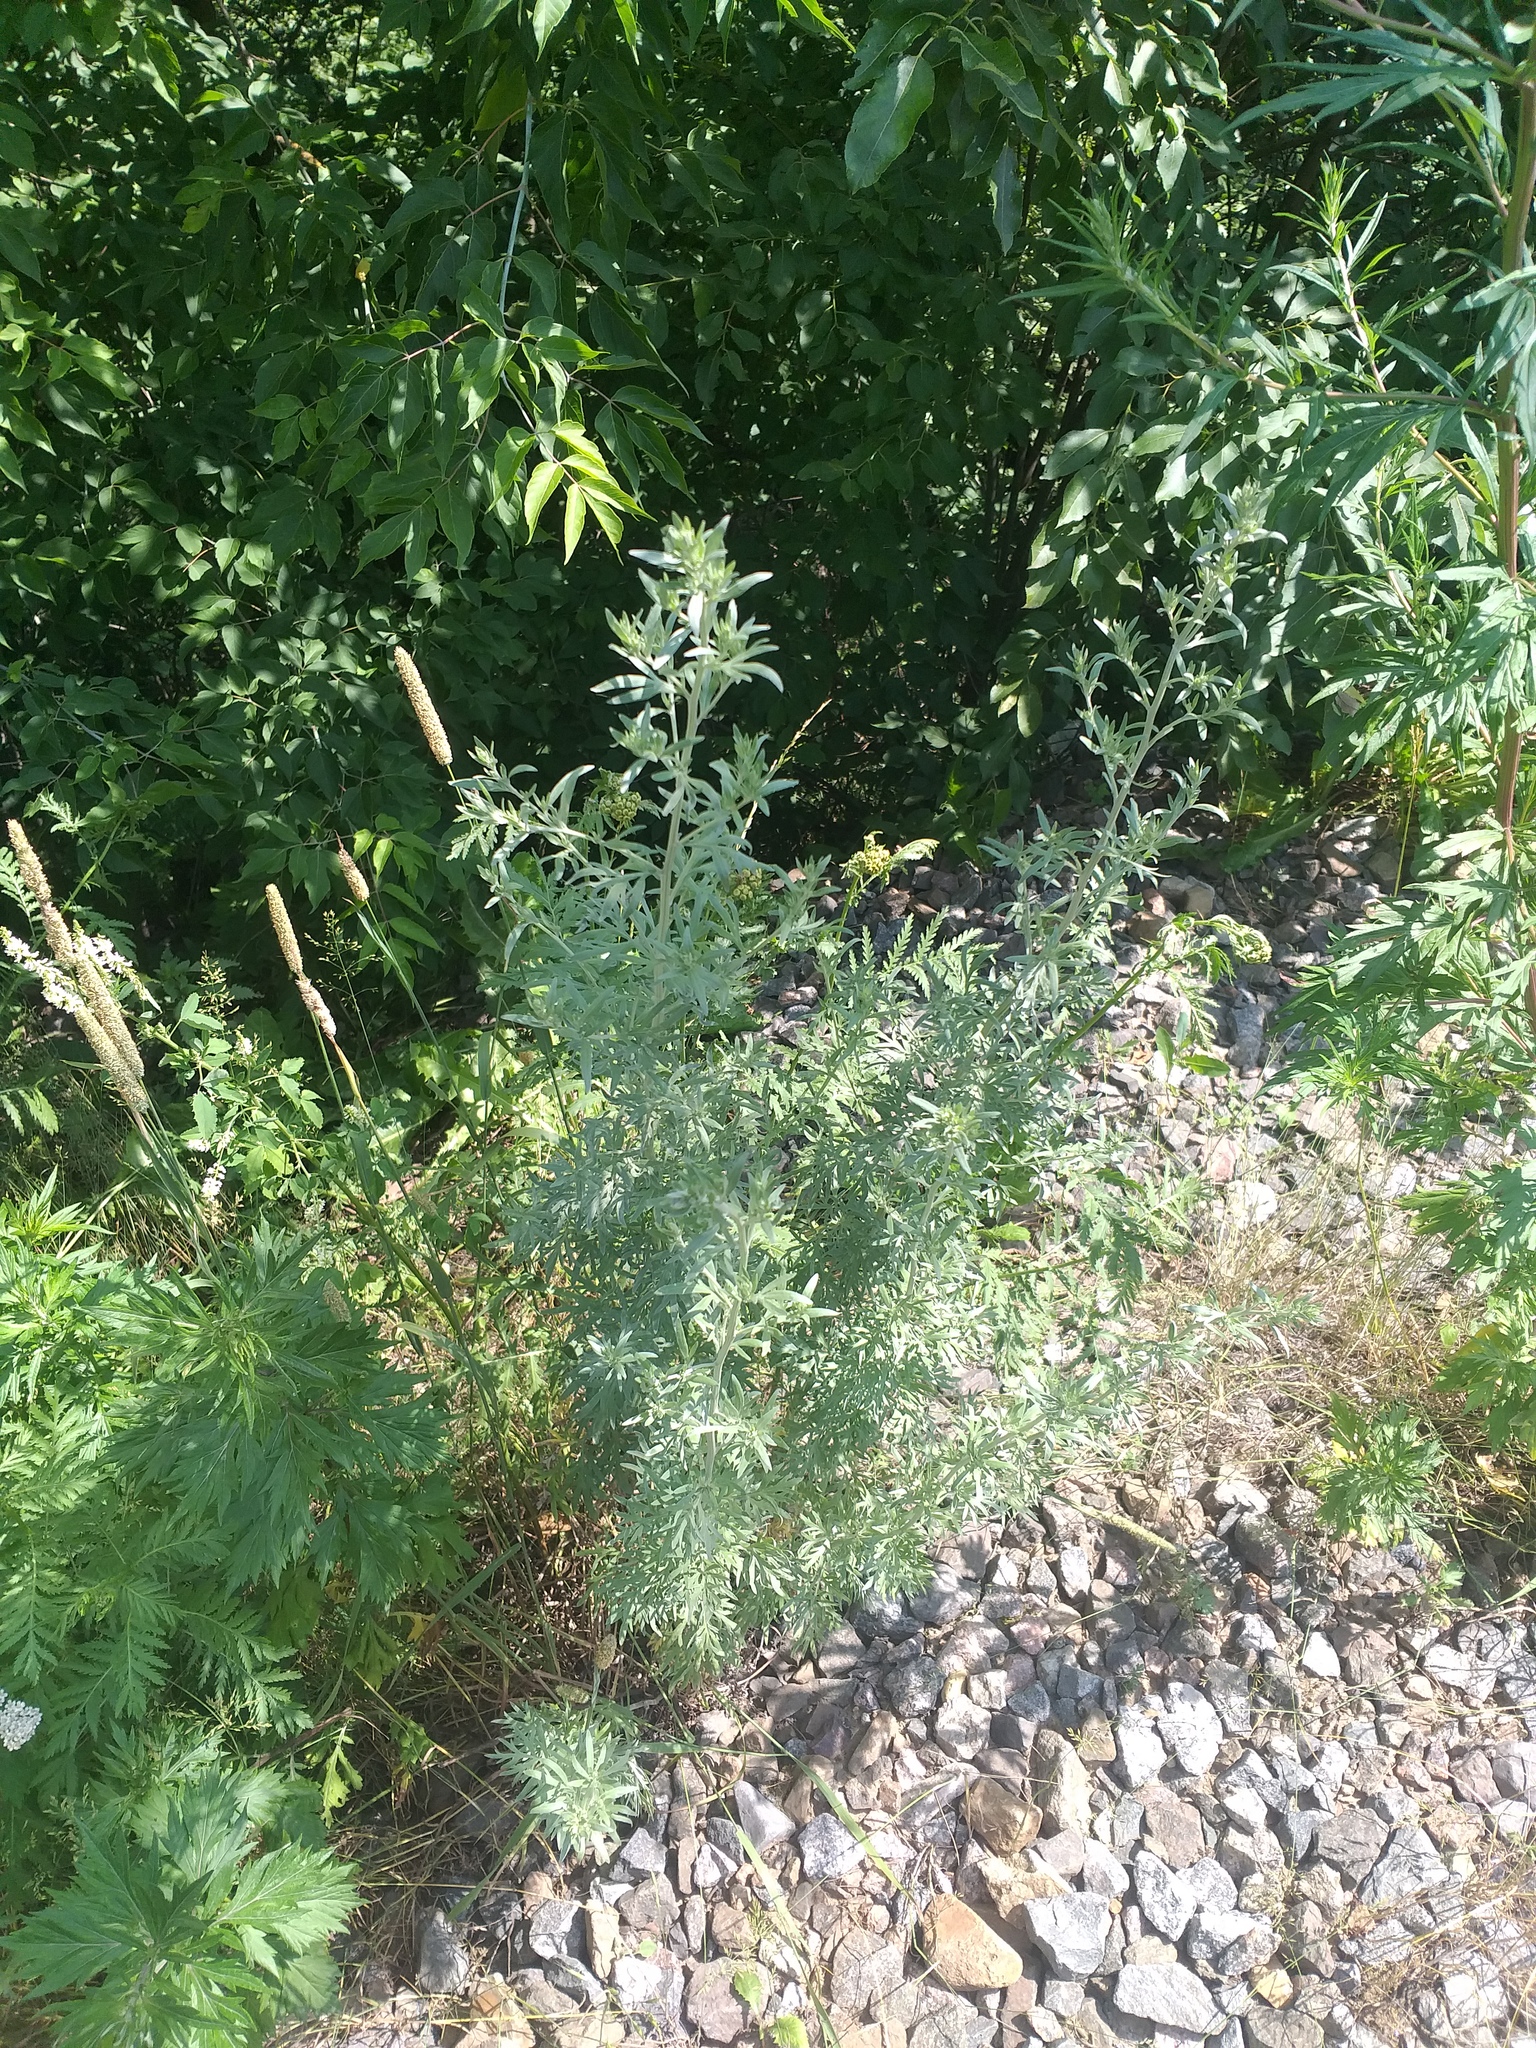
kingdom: Plantae
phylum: Tracheophyta
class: Magnoliopsida
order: Asterales
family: Asteraceae
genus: Artemisia
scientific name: Artemisia absinthium
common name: Wormwood
